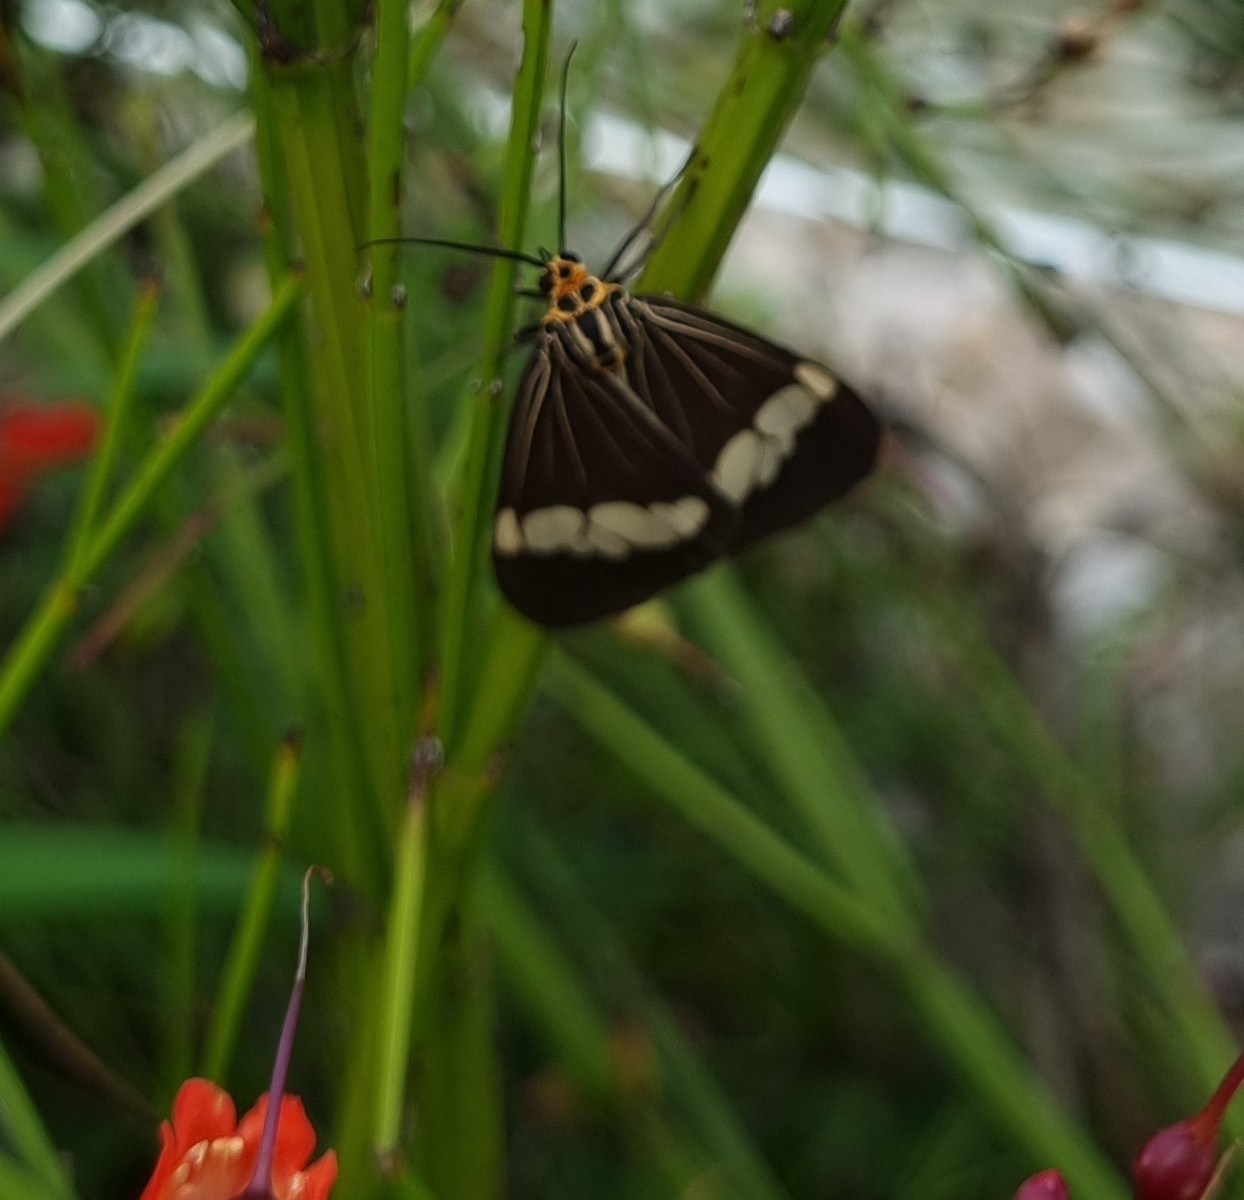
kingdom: Animalia
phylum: Arthropoda
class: Insecta
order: Lepidoptera
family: Erebidae
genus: Nyctemera
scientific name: Nyctemera baulus
